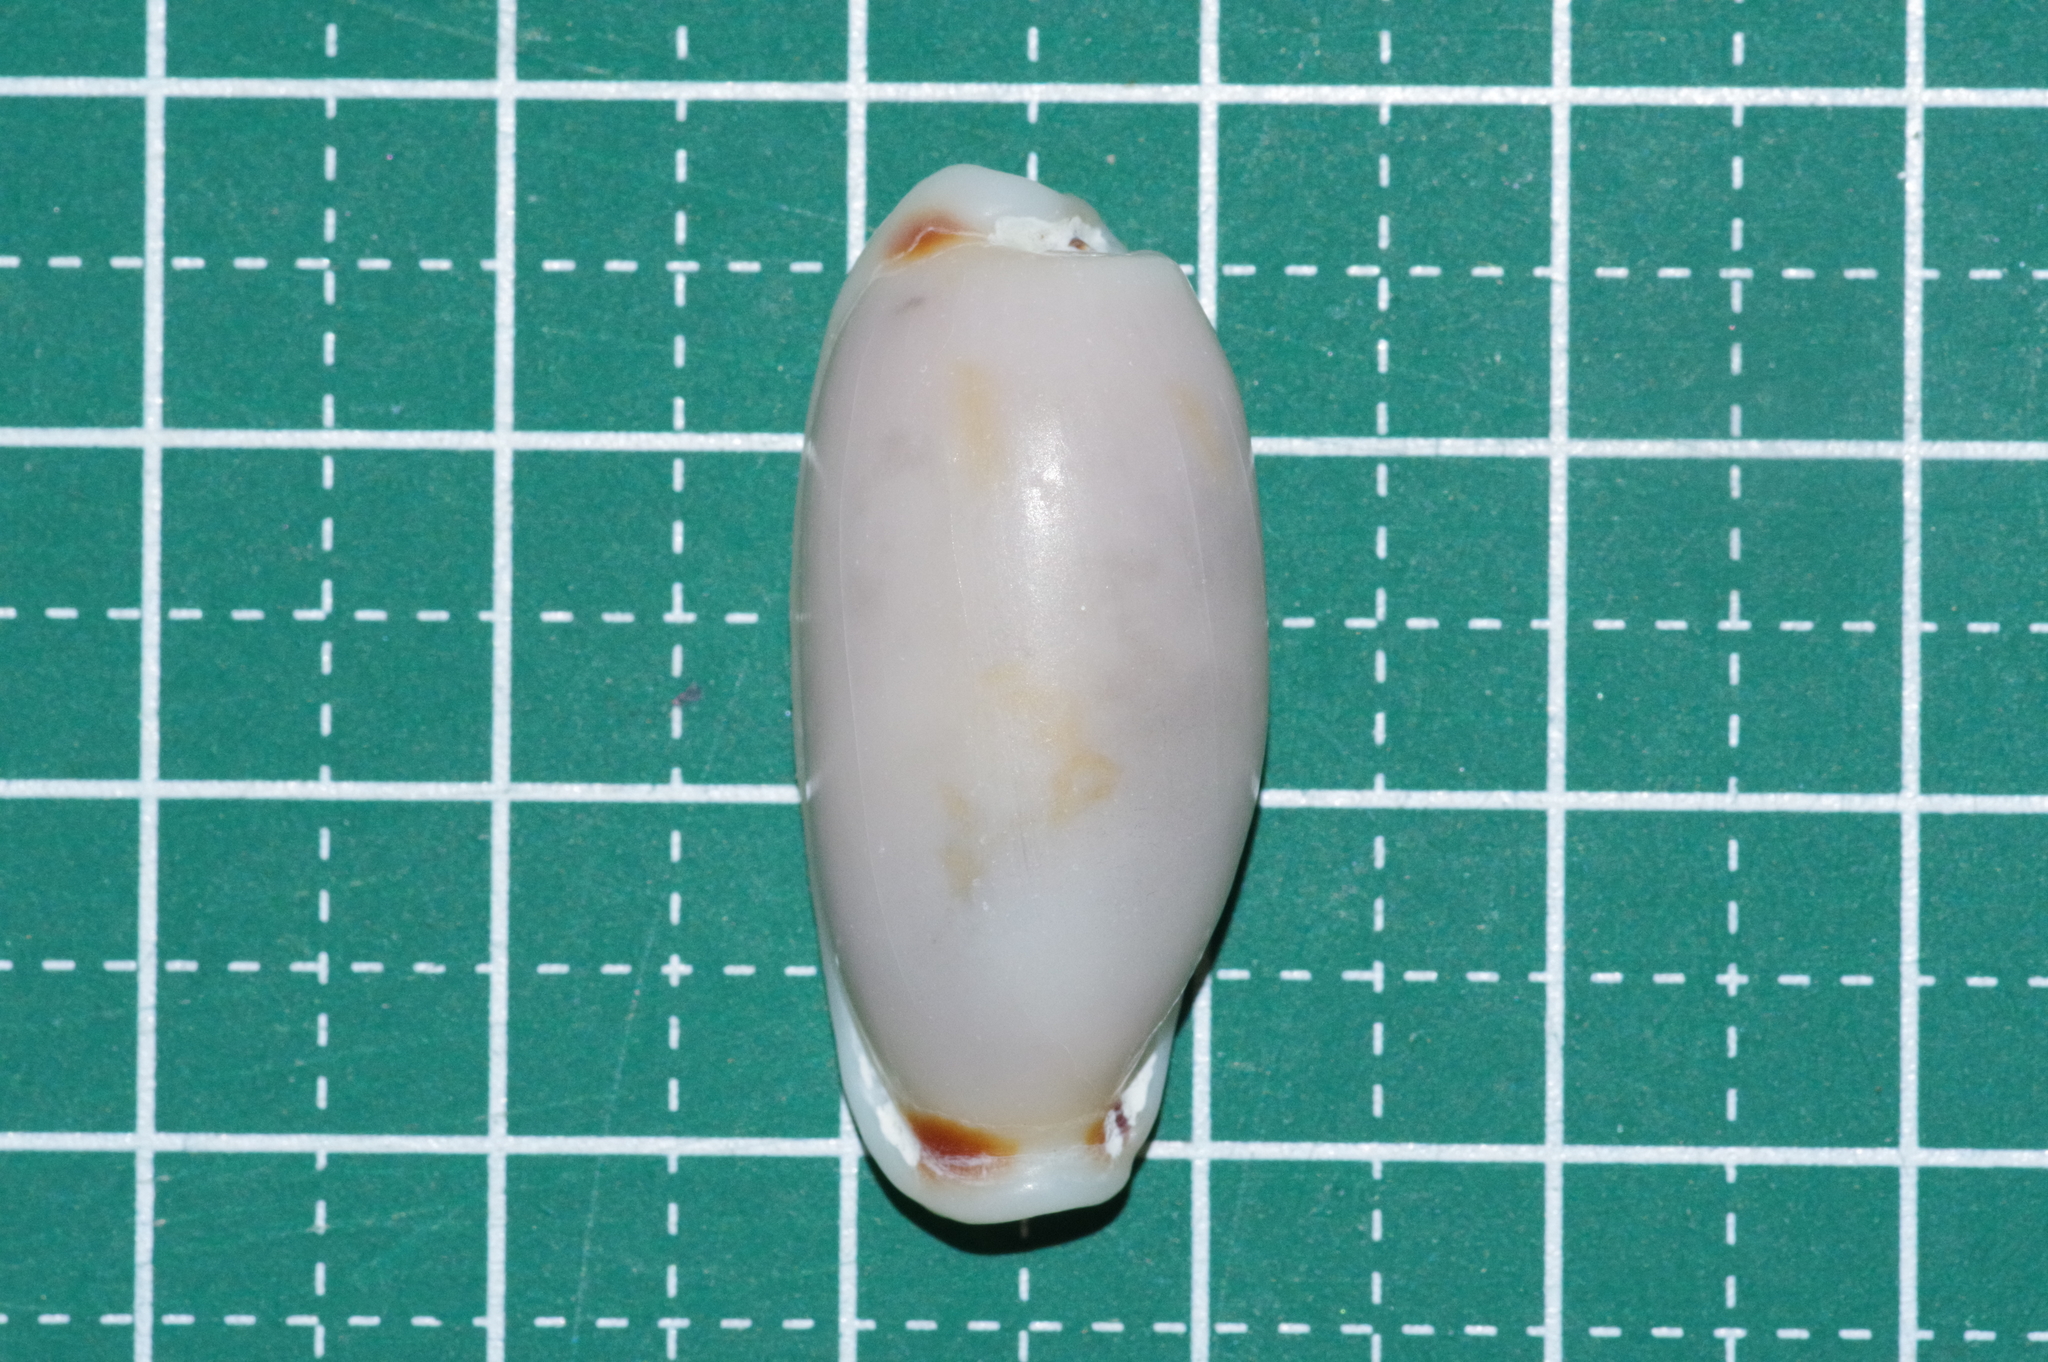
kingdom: Animalia
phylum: Mollusca
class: Gastropoda
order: Littorinimorpha
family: Cypraeidae
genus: Erronea
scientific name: Erronea cylindrica
